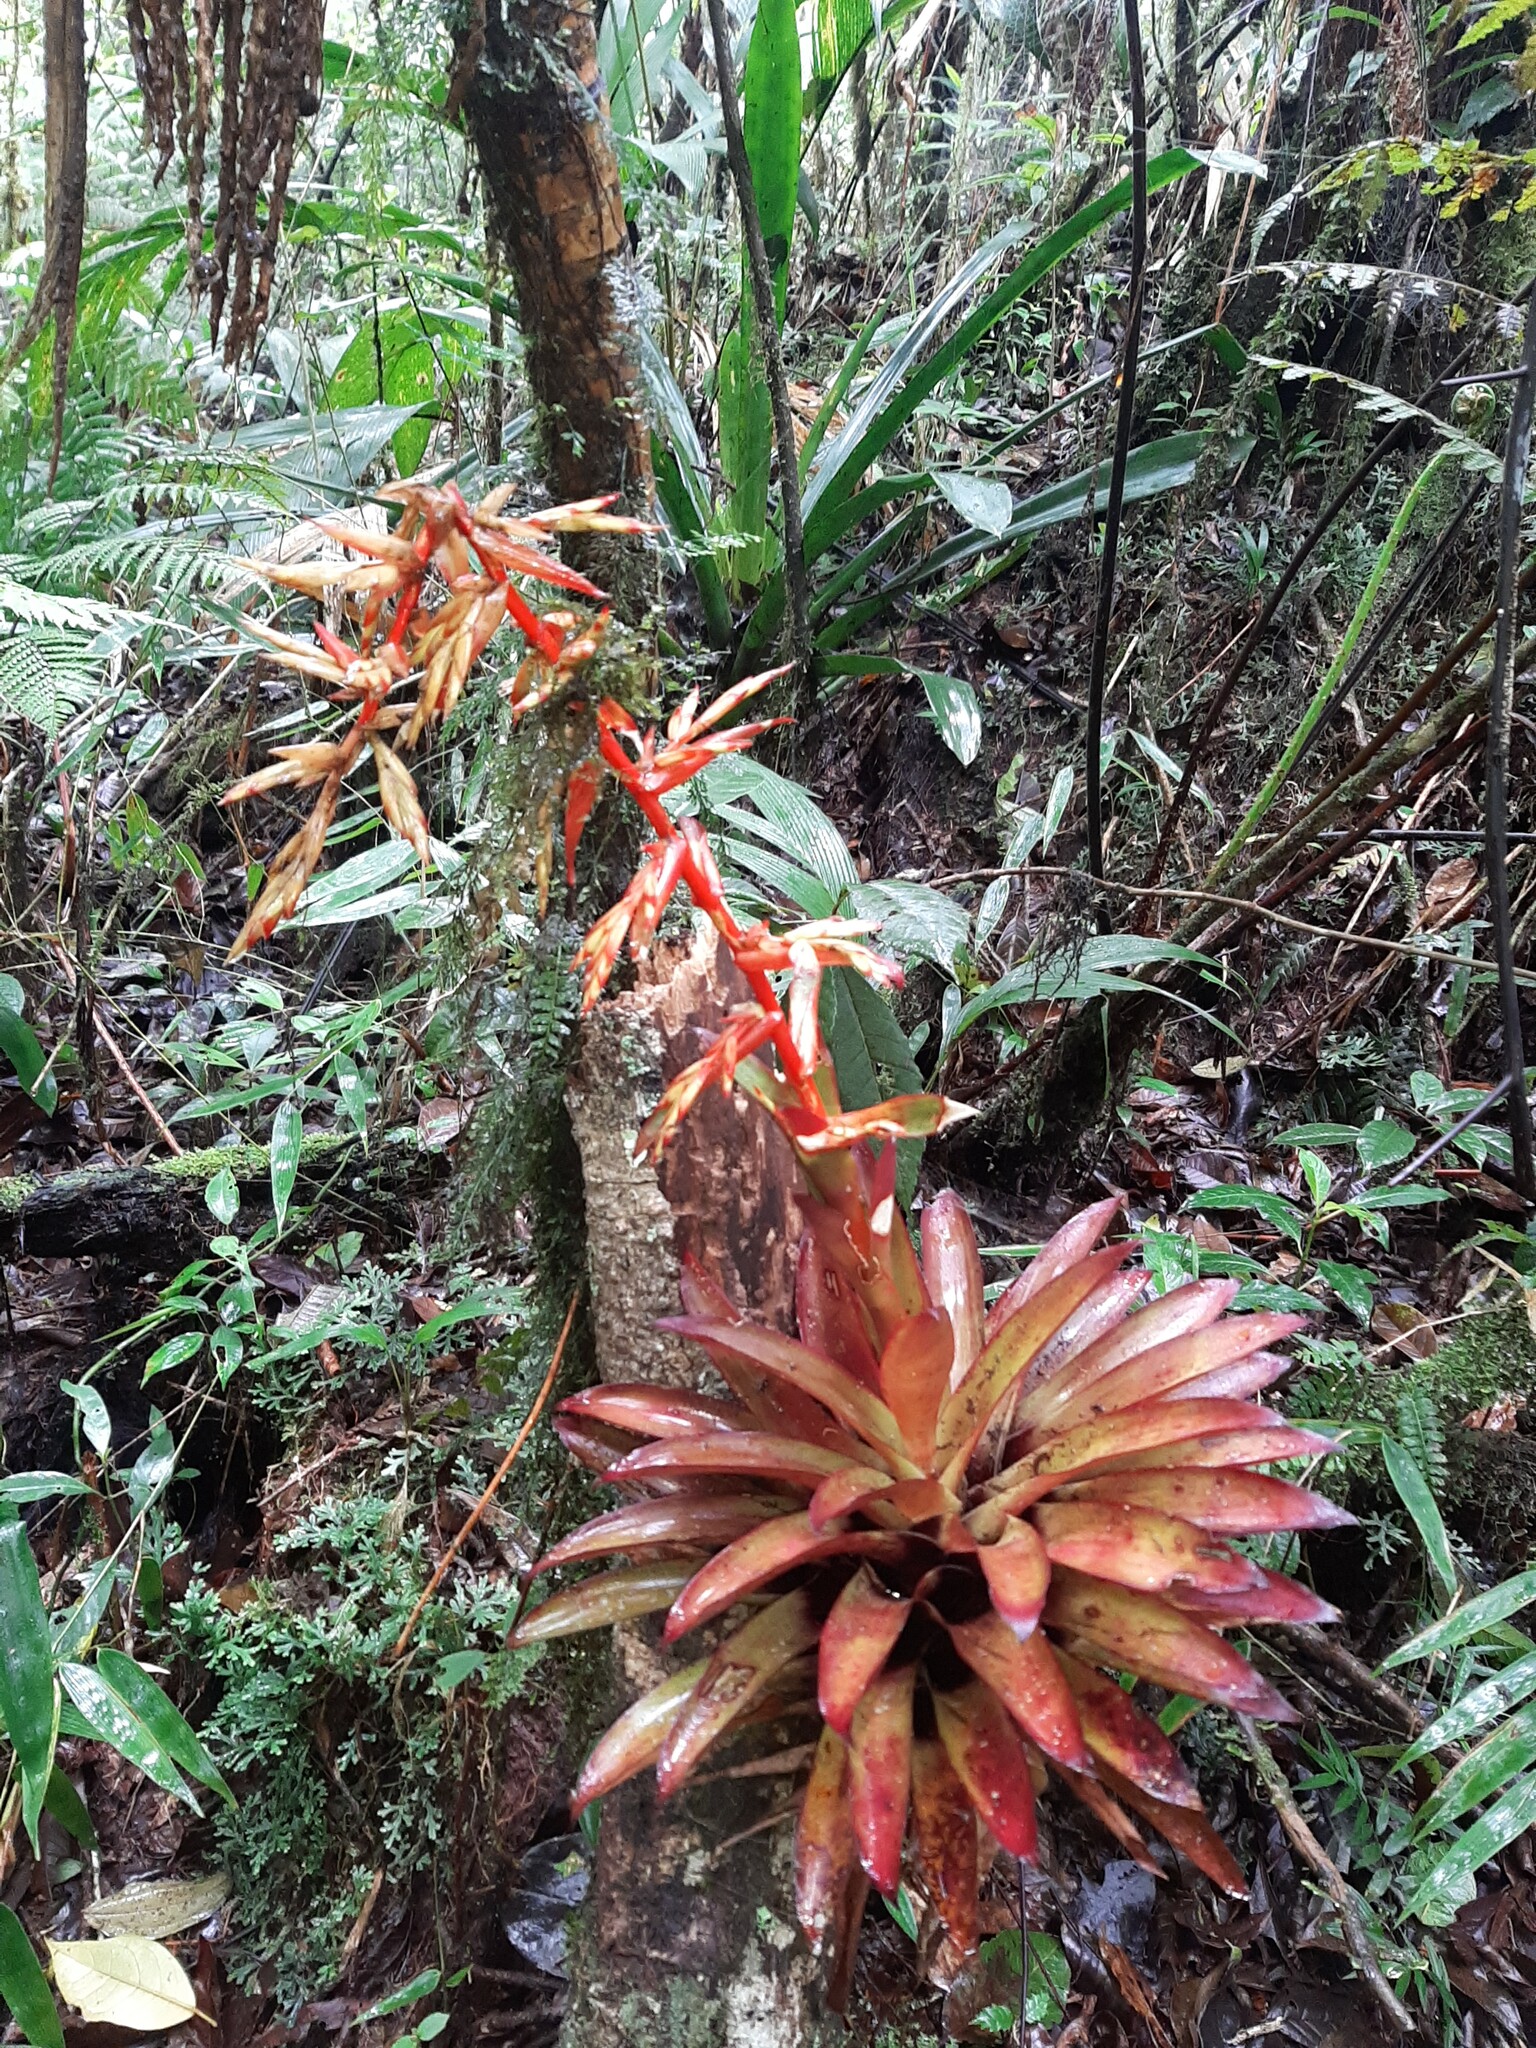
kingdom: Plantae
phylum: Tracheophyta
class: Liliopsida
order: Poales
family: Bromeliaceae
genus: Tillandsia
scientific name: Tillandsia guatemalensis
